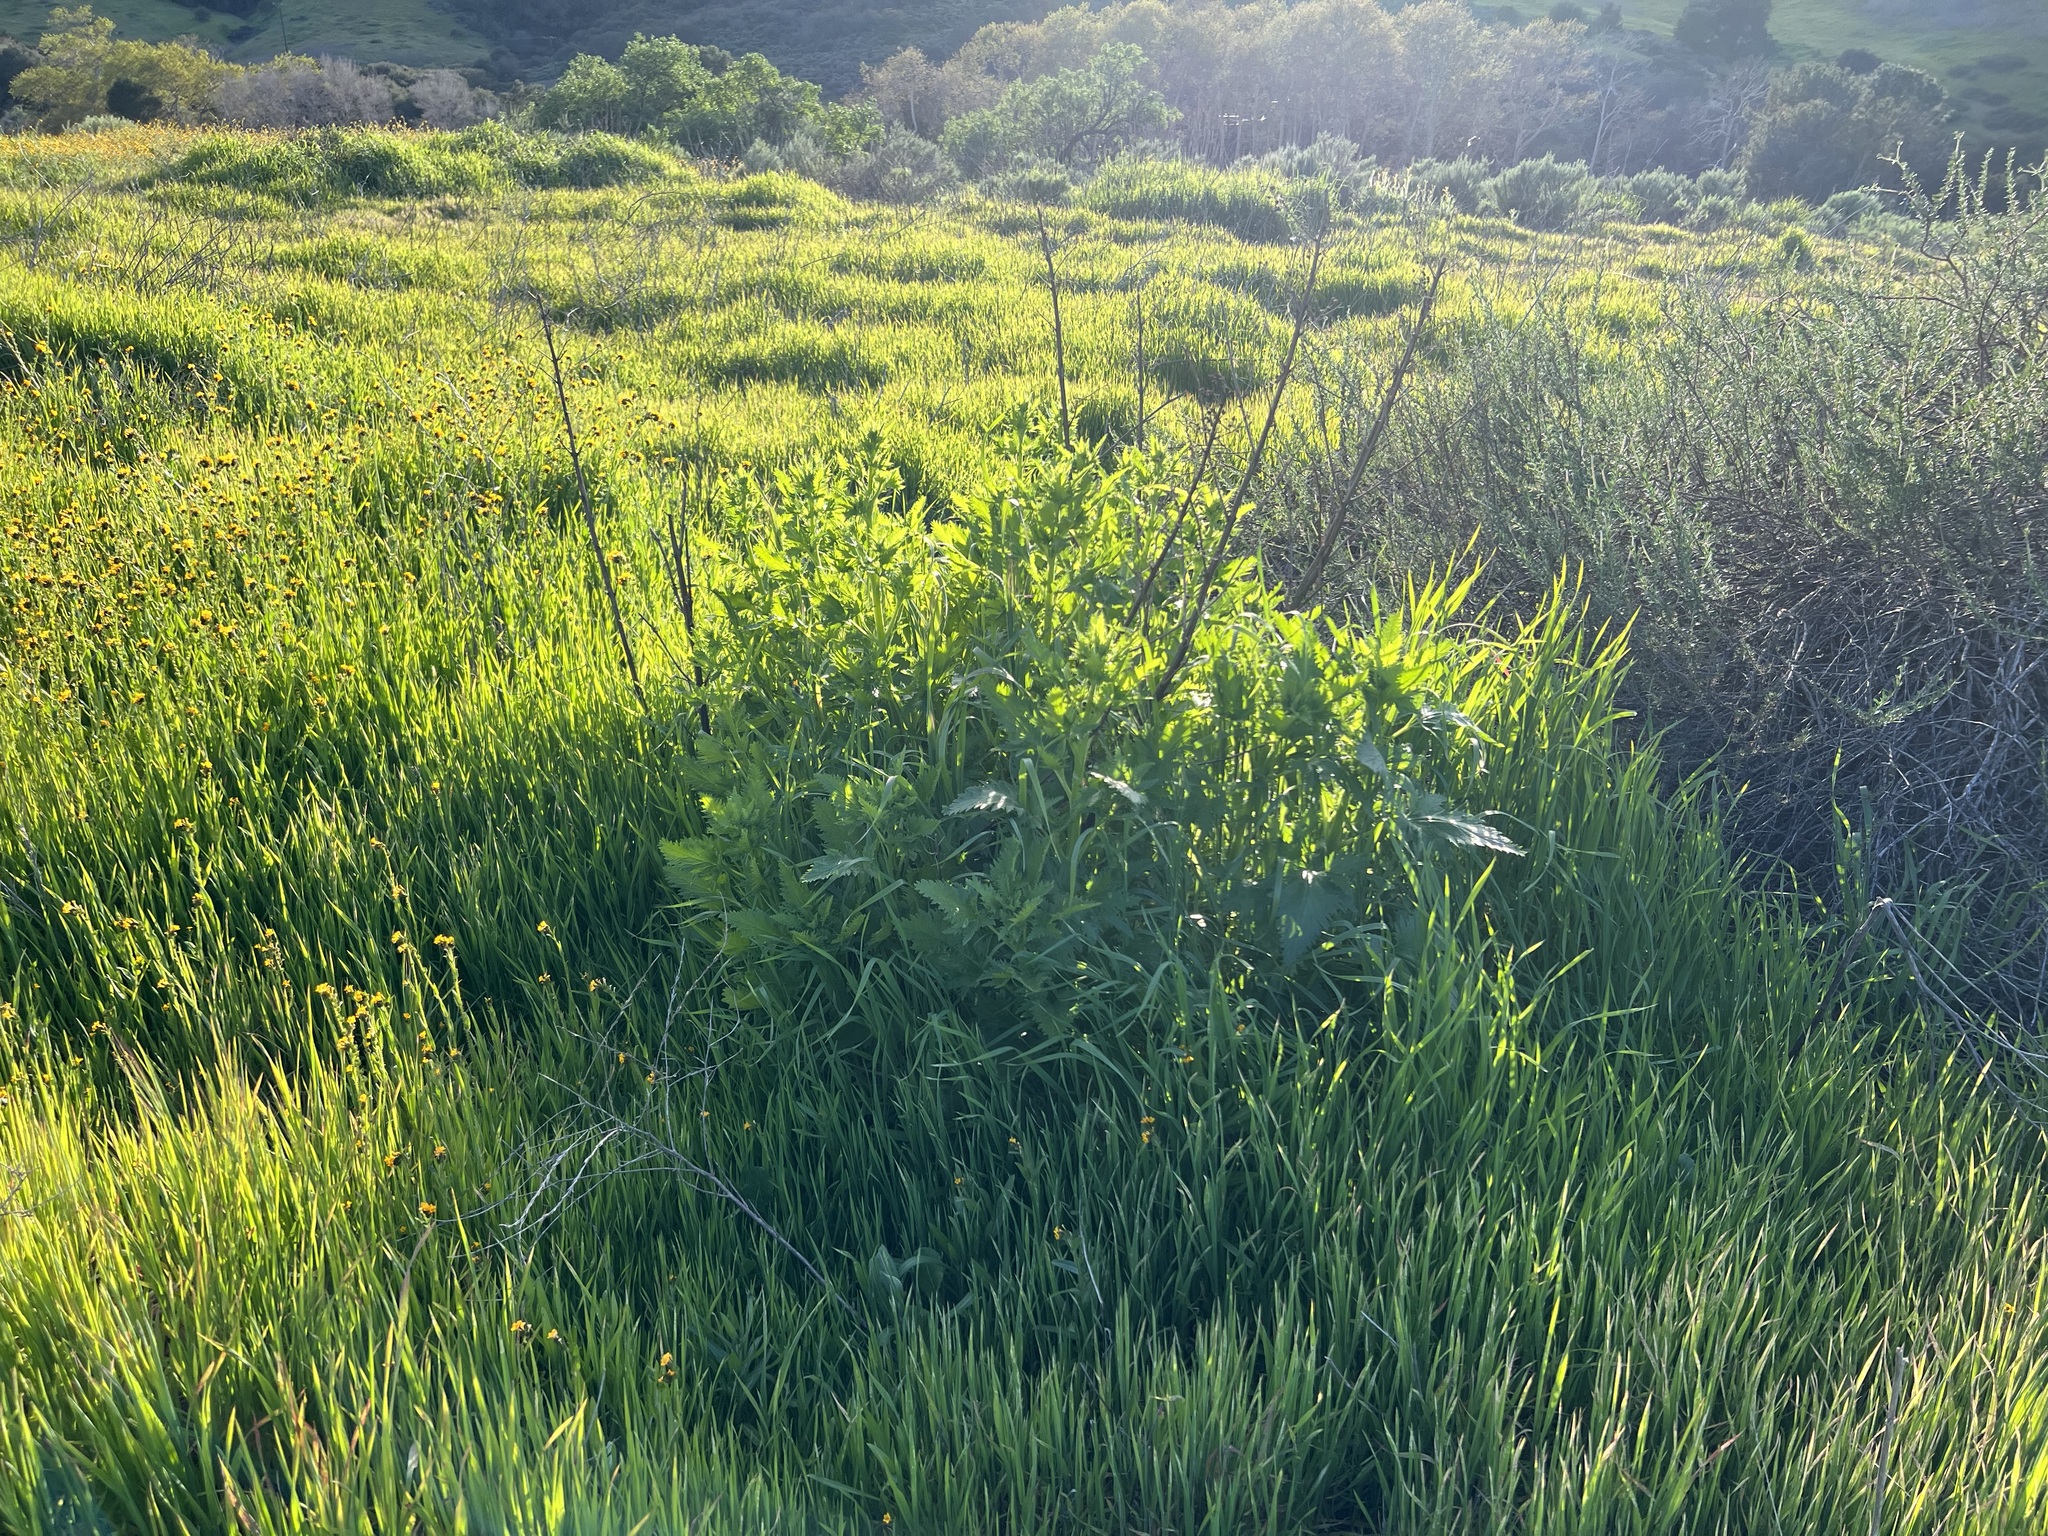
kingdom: Plantae
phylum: Tracheophyta
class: Magnoliopsida
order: Lamiales
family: Scrophulariaceae
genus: Scrophularia
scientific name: Scrophularia californica
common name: California figwort
